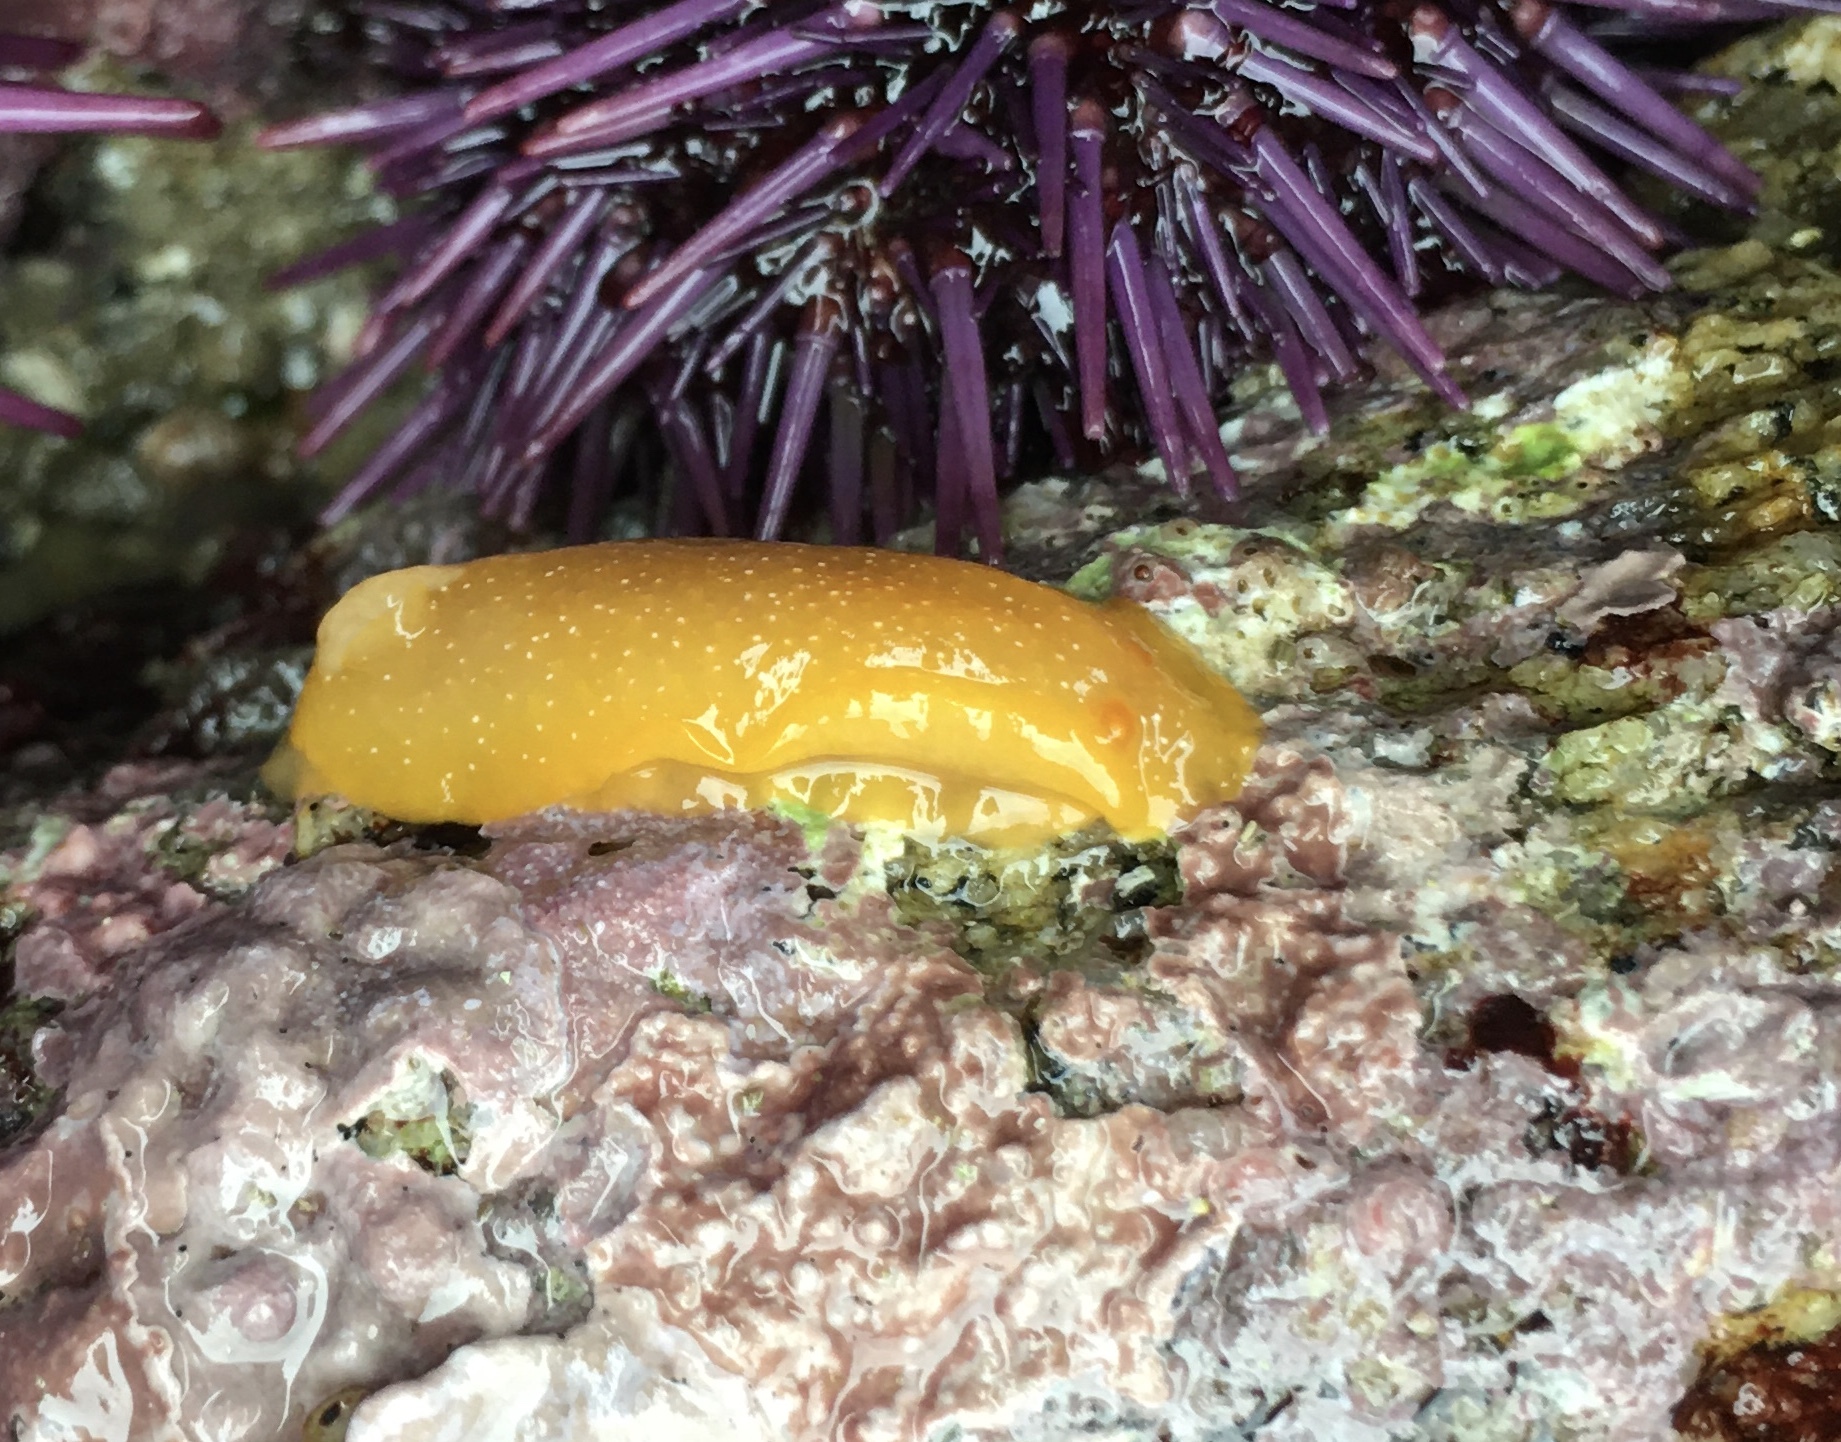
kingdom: Animalia
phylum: Mollusca
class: Gastropoda
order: Nudibranchia
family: Dendrodorididae
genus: Doriopsilla
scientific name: Doriopsilla fulva
